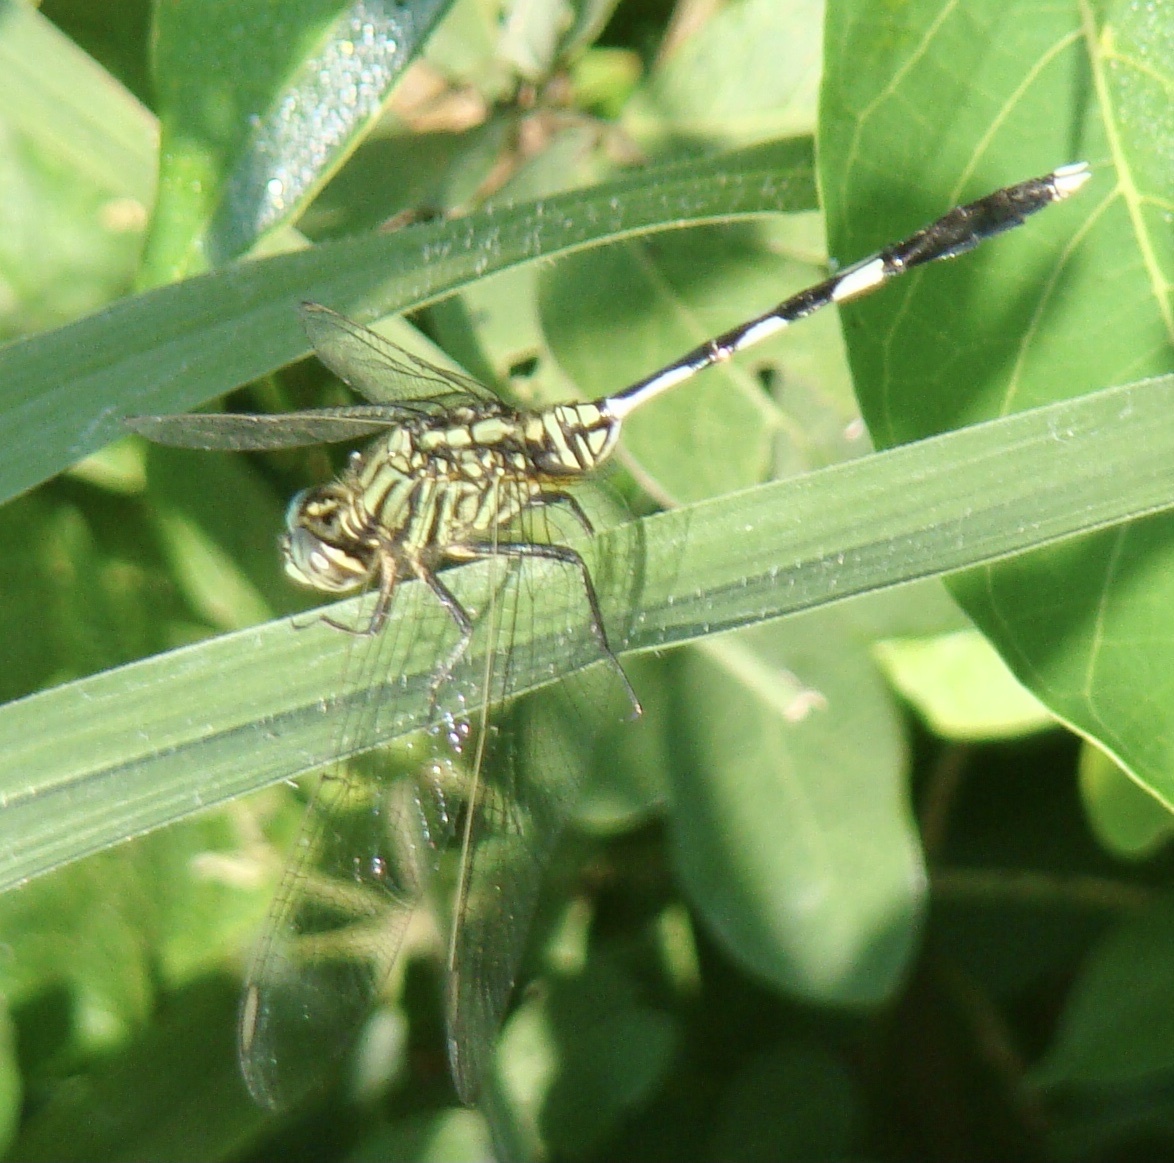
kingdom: Animalia
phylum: Arthropoda
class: Insecta
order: Odonata
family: Libellulidae
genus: Orthetrum
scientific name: Orthetrum sabina
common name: Slender skimmer
